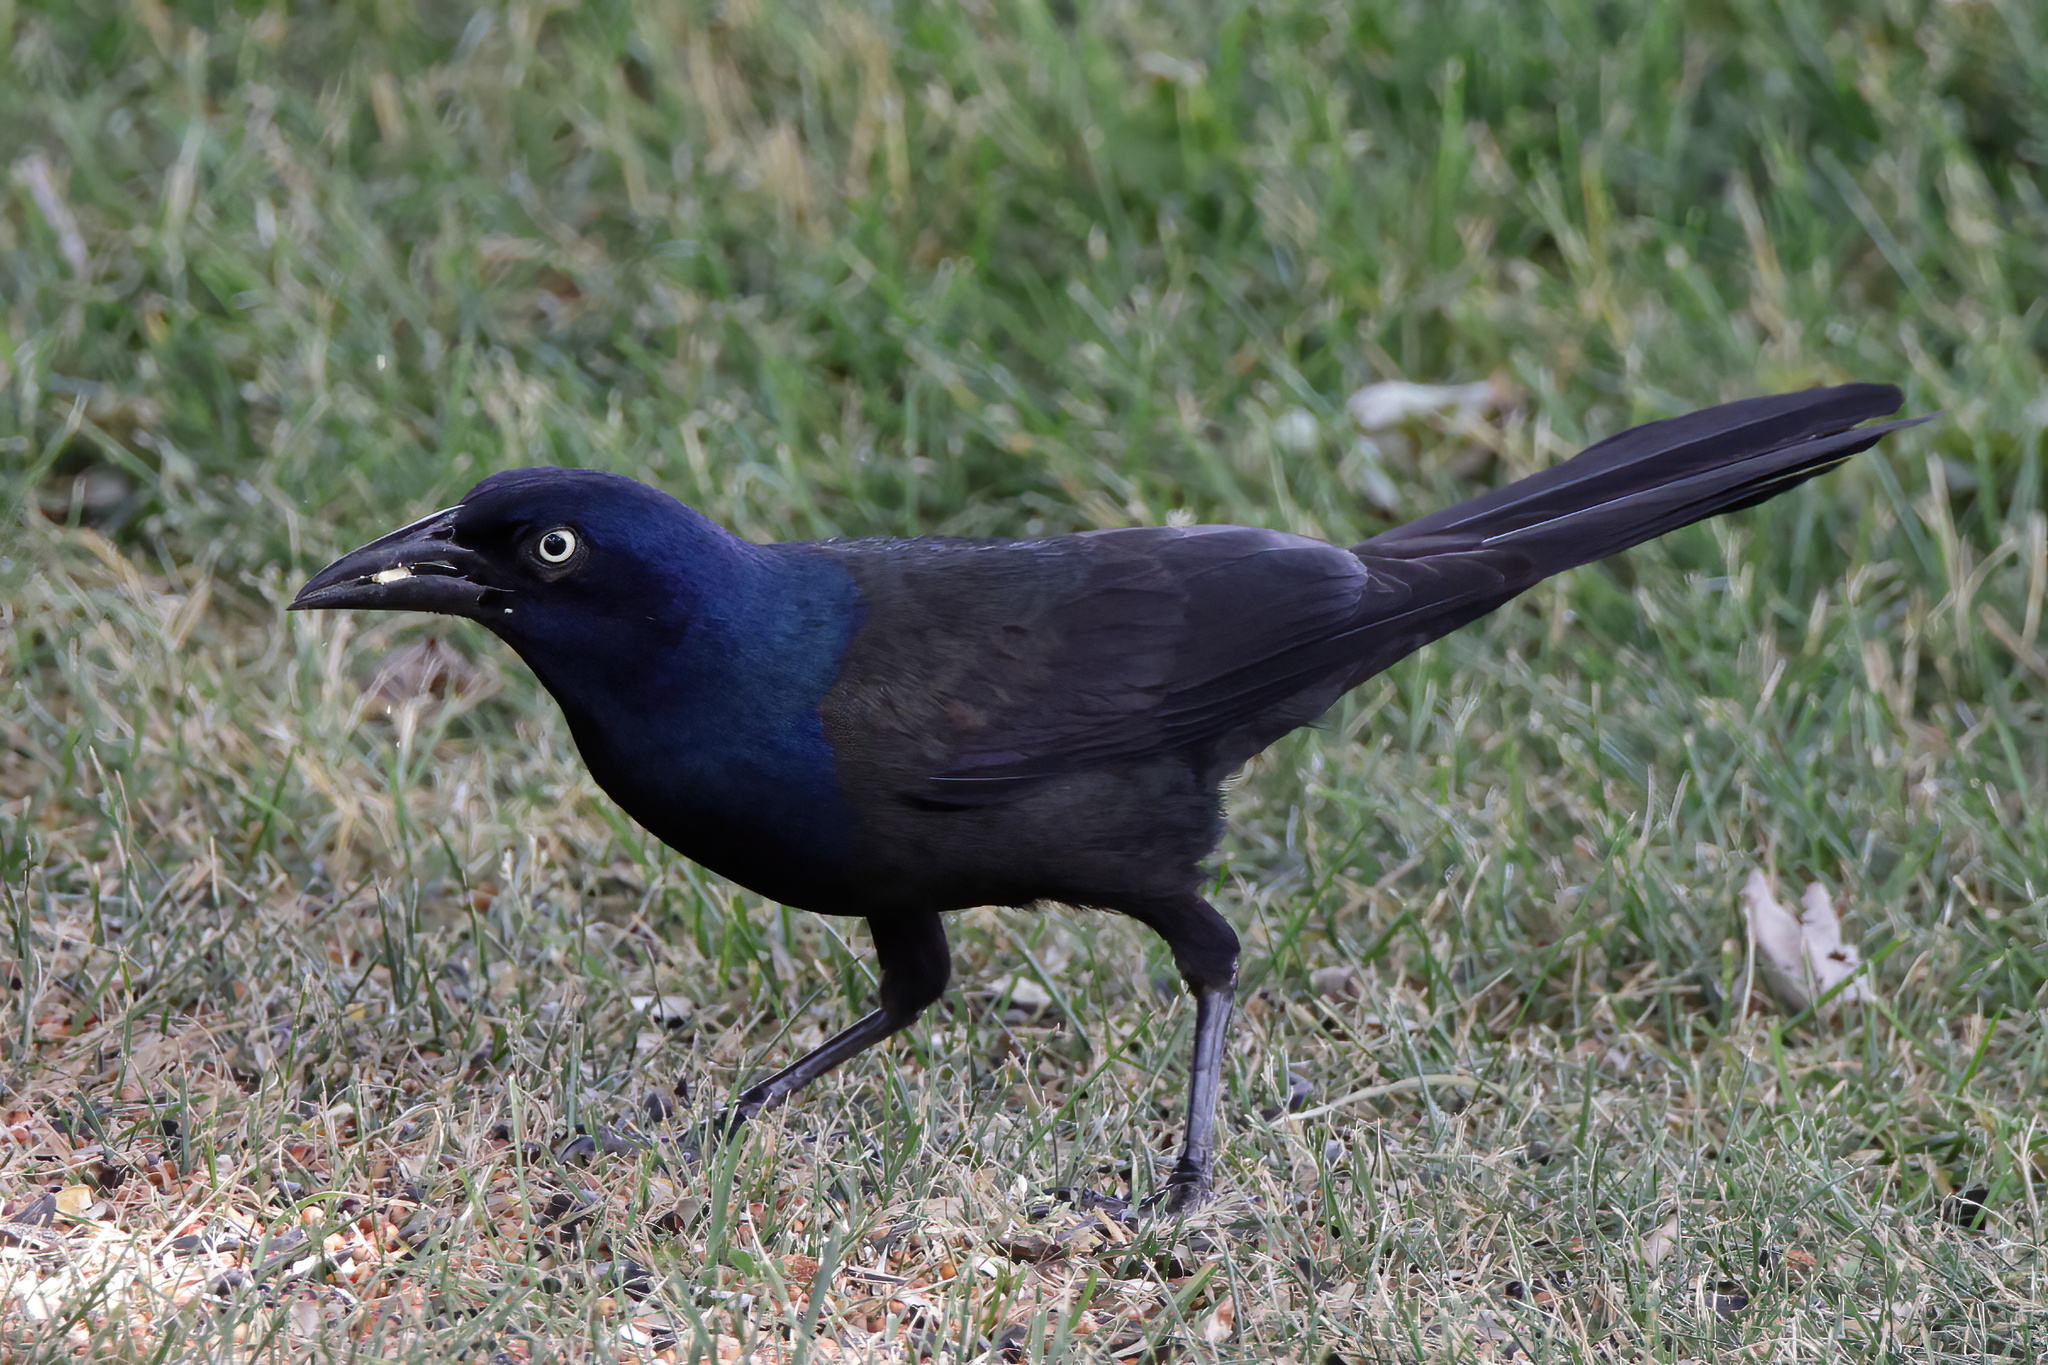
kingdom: Animalia
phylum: Chordata
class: Aves
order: Passeriformes
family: Icteridae
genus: Quiscalus
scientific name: Quiscalus quiscula
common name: Common grackle
